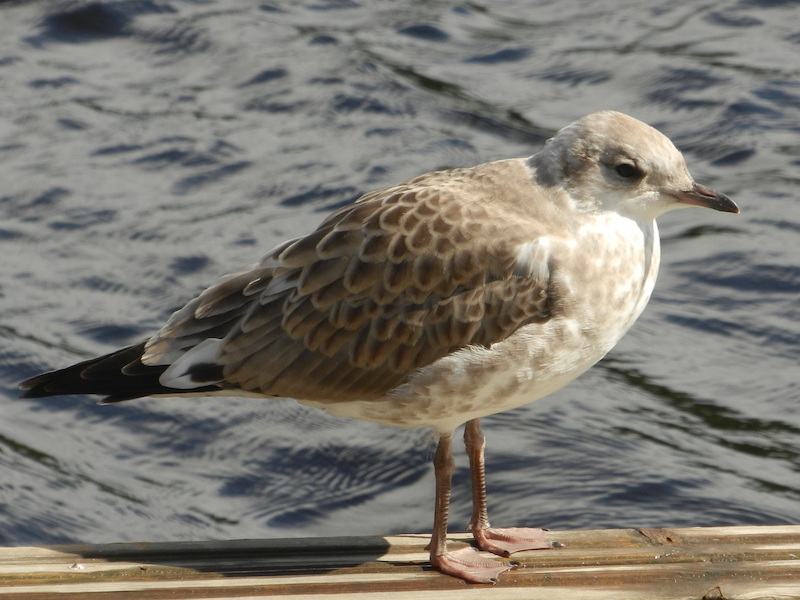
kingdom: Animalia
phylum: Chordata
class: Aves
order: Charadriiformes
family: Laridae
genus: Larus
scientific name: Larus canus
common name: Mew gull
